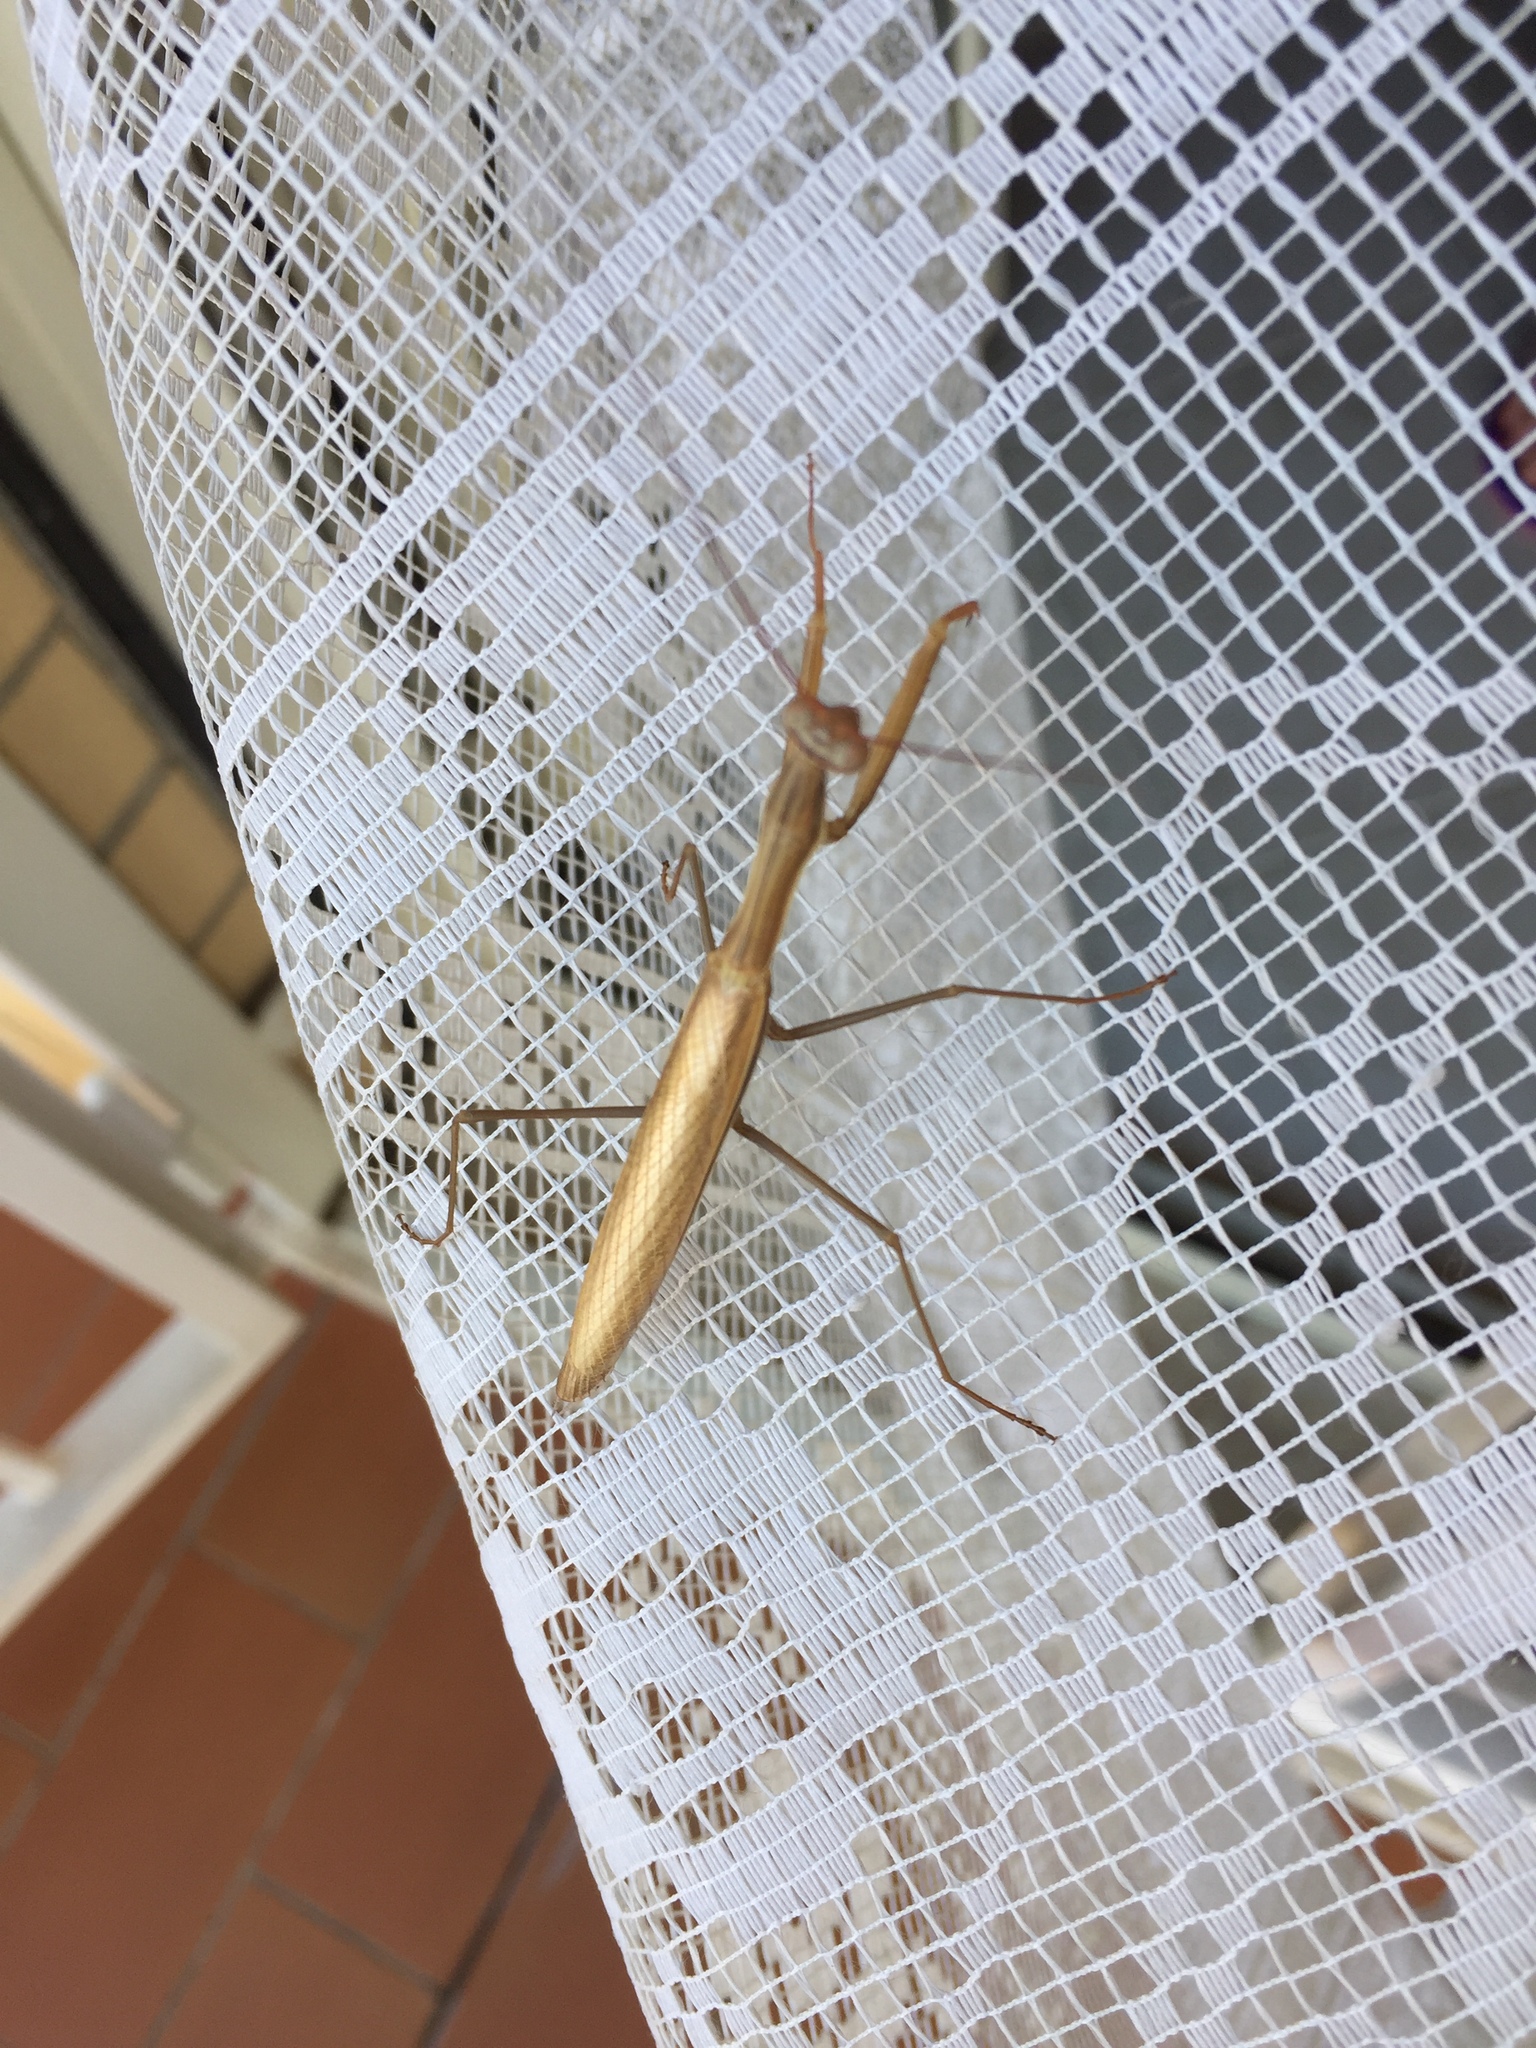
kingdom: Animalia
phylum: Arthropoda
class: Insecta
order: Mantodea
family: Mantidae
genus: Mantis
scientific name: Mantis religiosa
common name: Praying mantis
